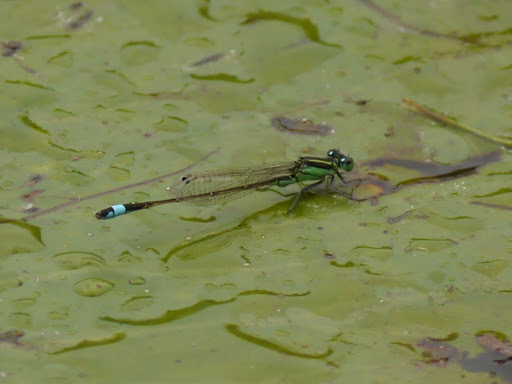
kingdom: Animalia
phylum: Arthropoda
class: Insecta
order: Odonata
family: Coenagrionidae
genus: Ischnura
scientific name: Ischnura ramburii
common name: Rambur's forktail
